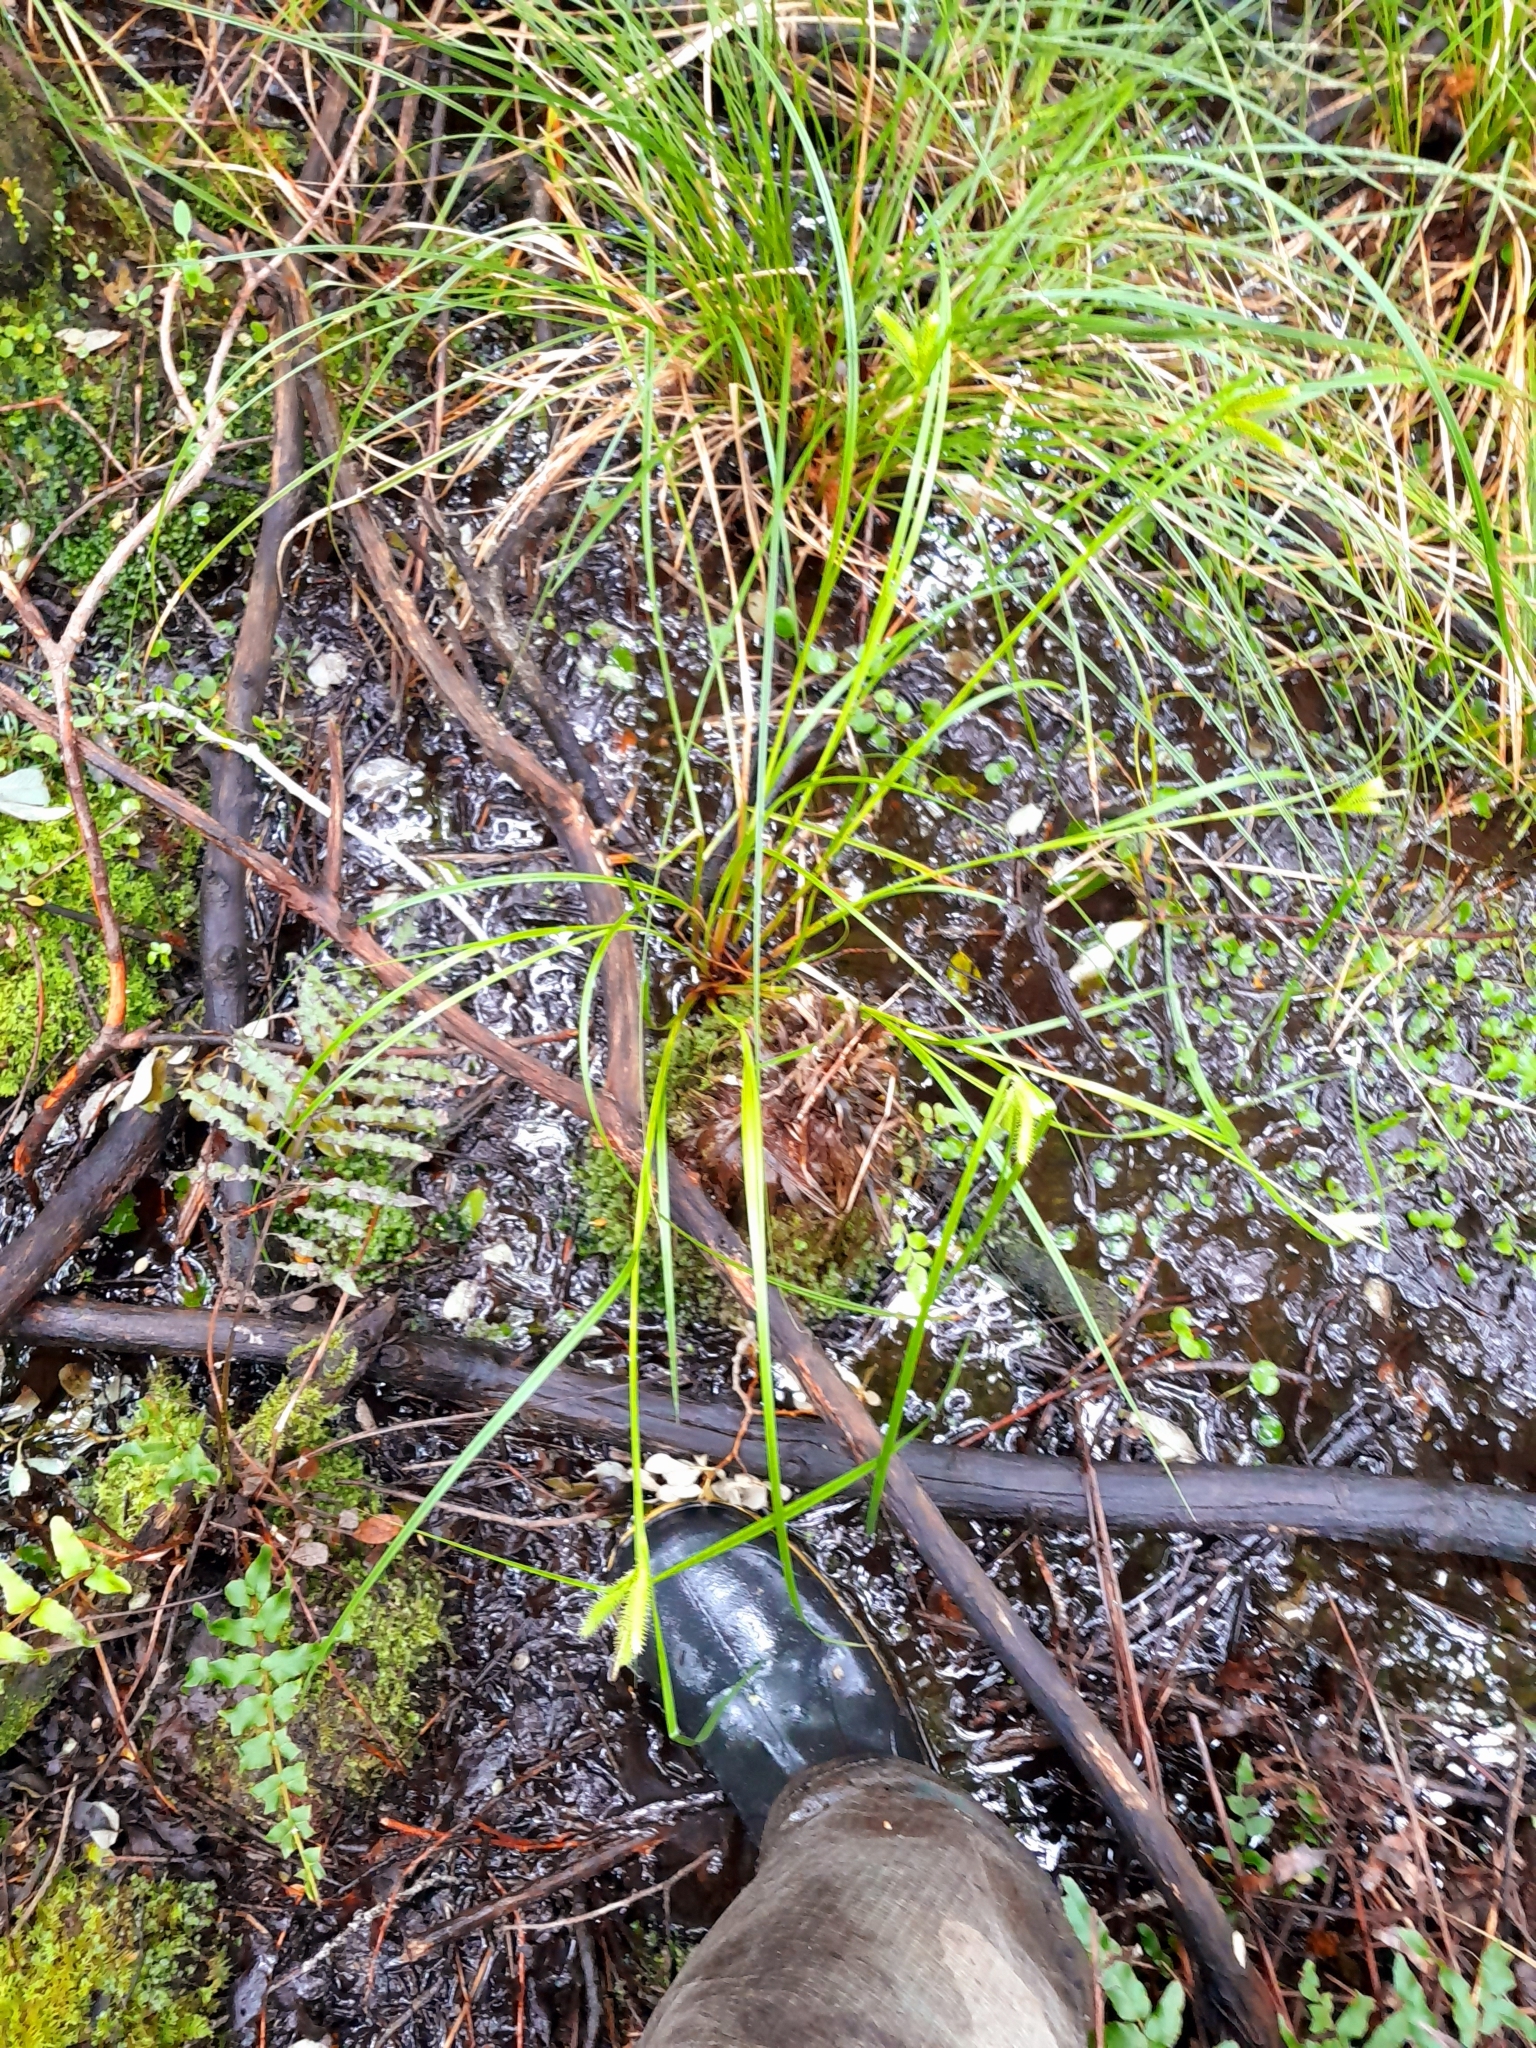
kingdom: Plantae
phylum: Tracheophyta
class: Liliopsida
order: Poales
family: Cyperaceae
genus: Carex
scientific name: Carex maorica
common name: Maori sedge
